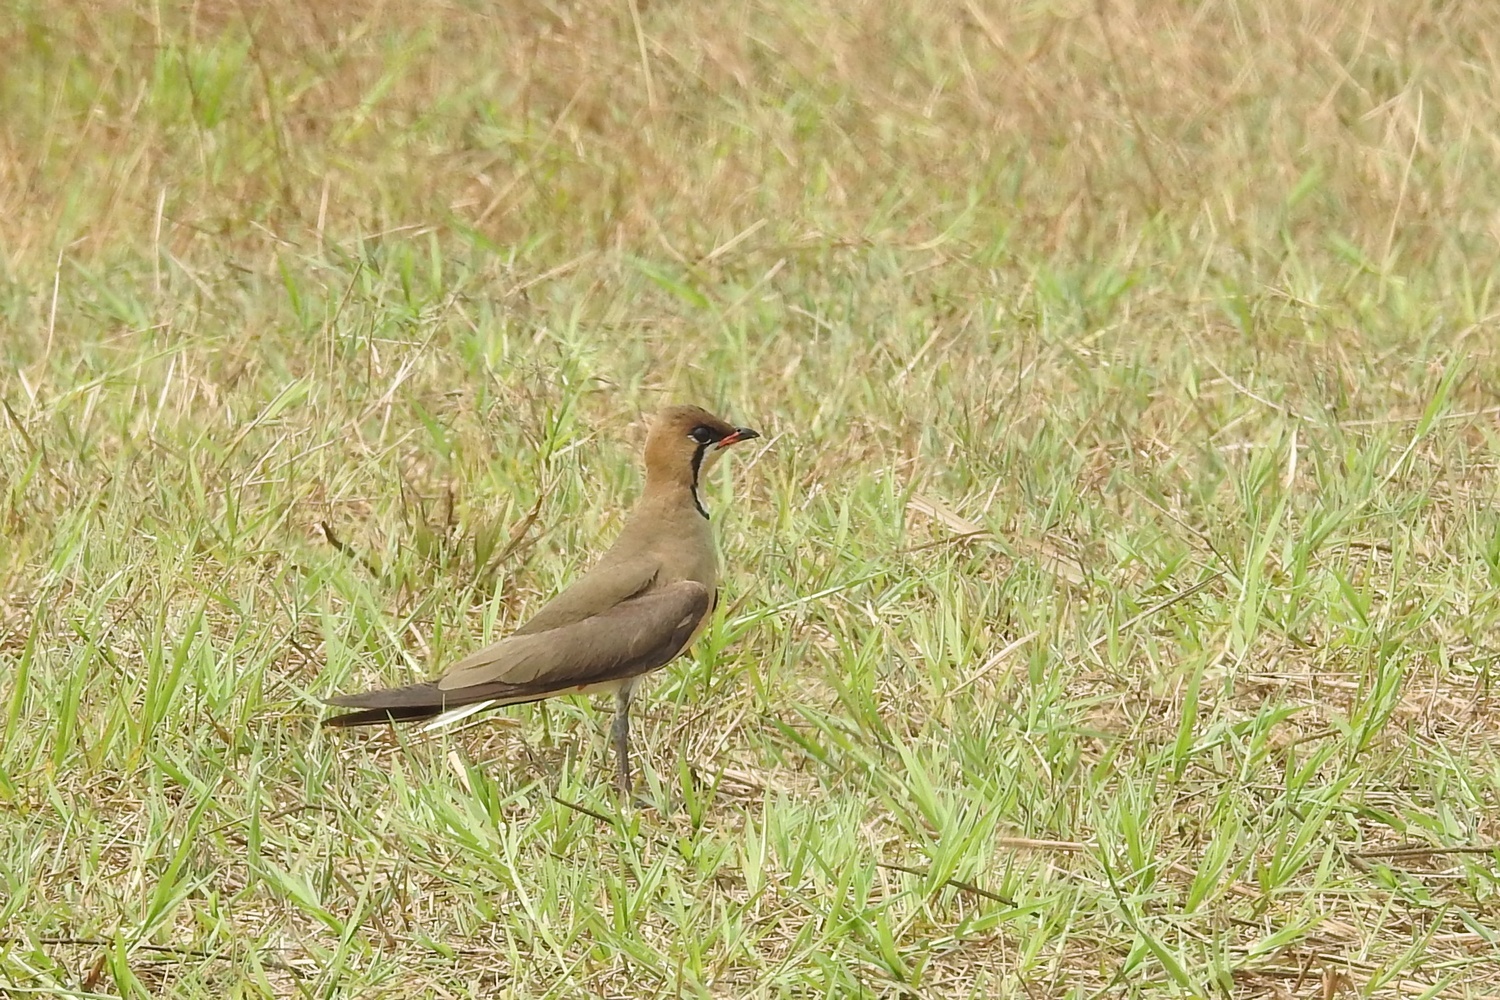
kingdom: Animalia
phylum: Chordata
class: Aves
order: Charadriiformes
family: Glareolidae
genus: Glareola
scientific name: Glareola maldivarum
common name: Oriental pratincole
